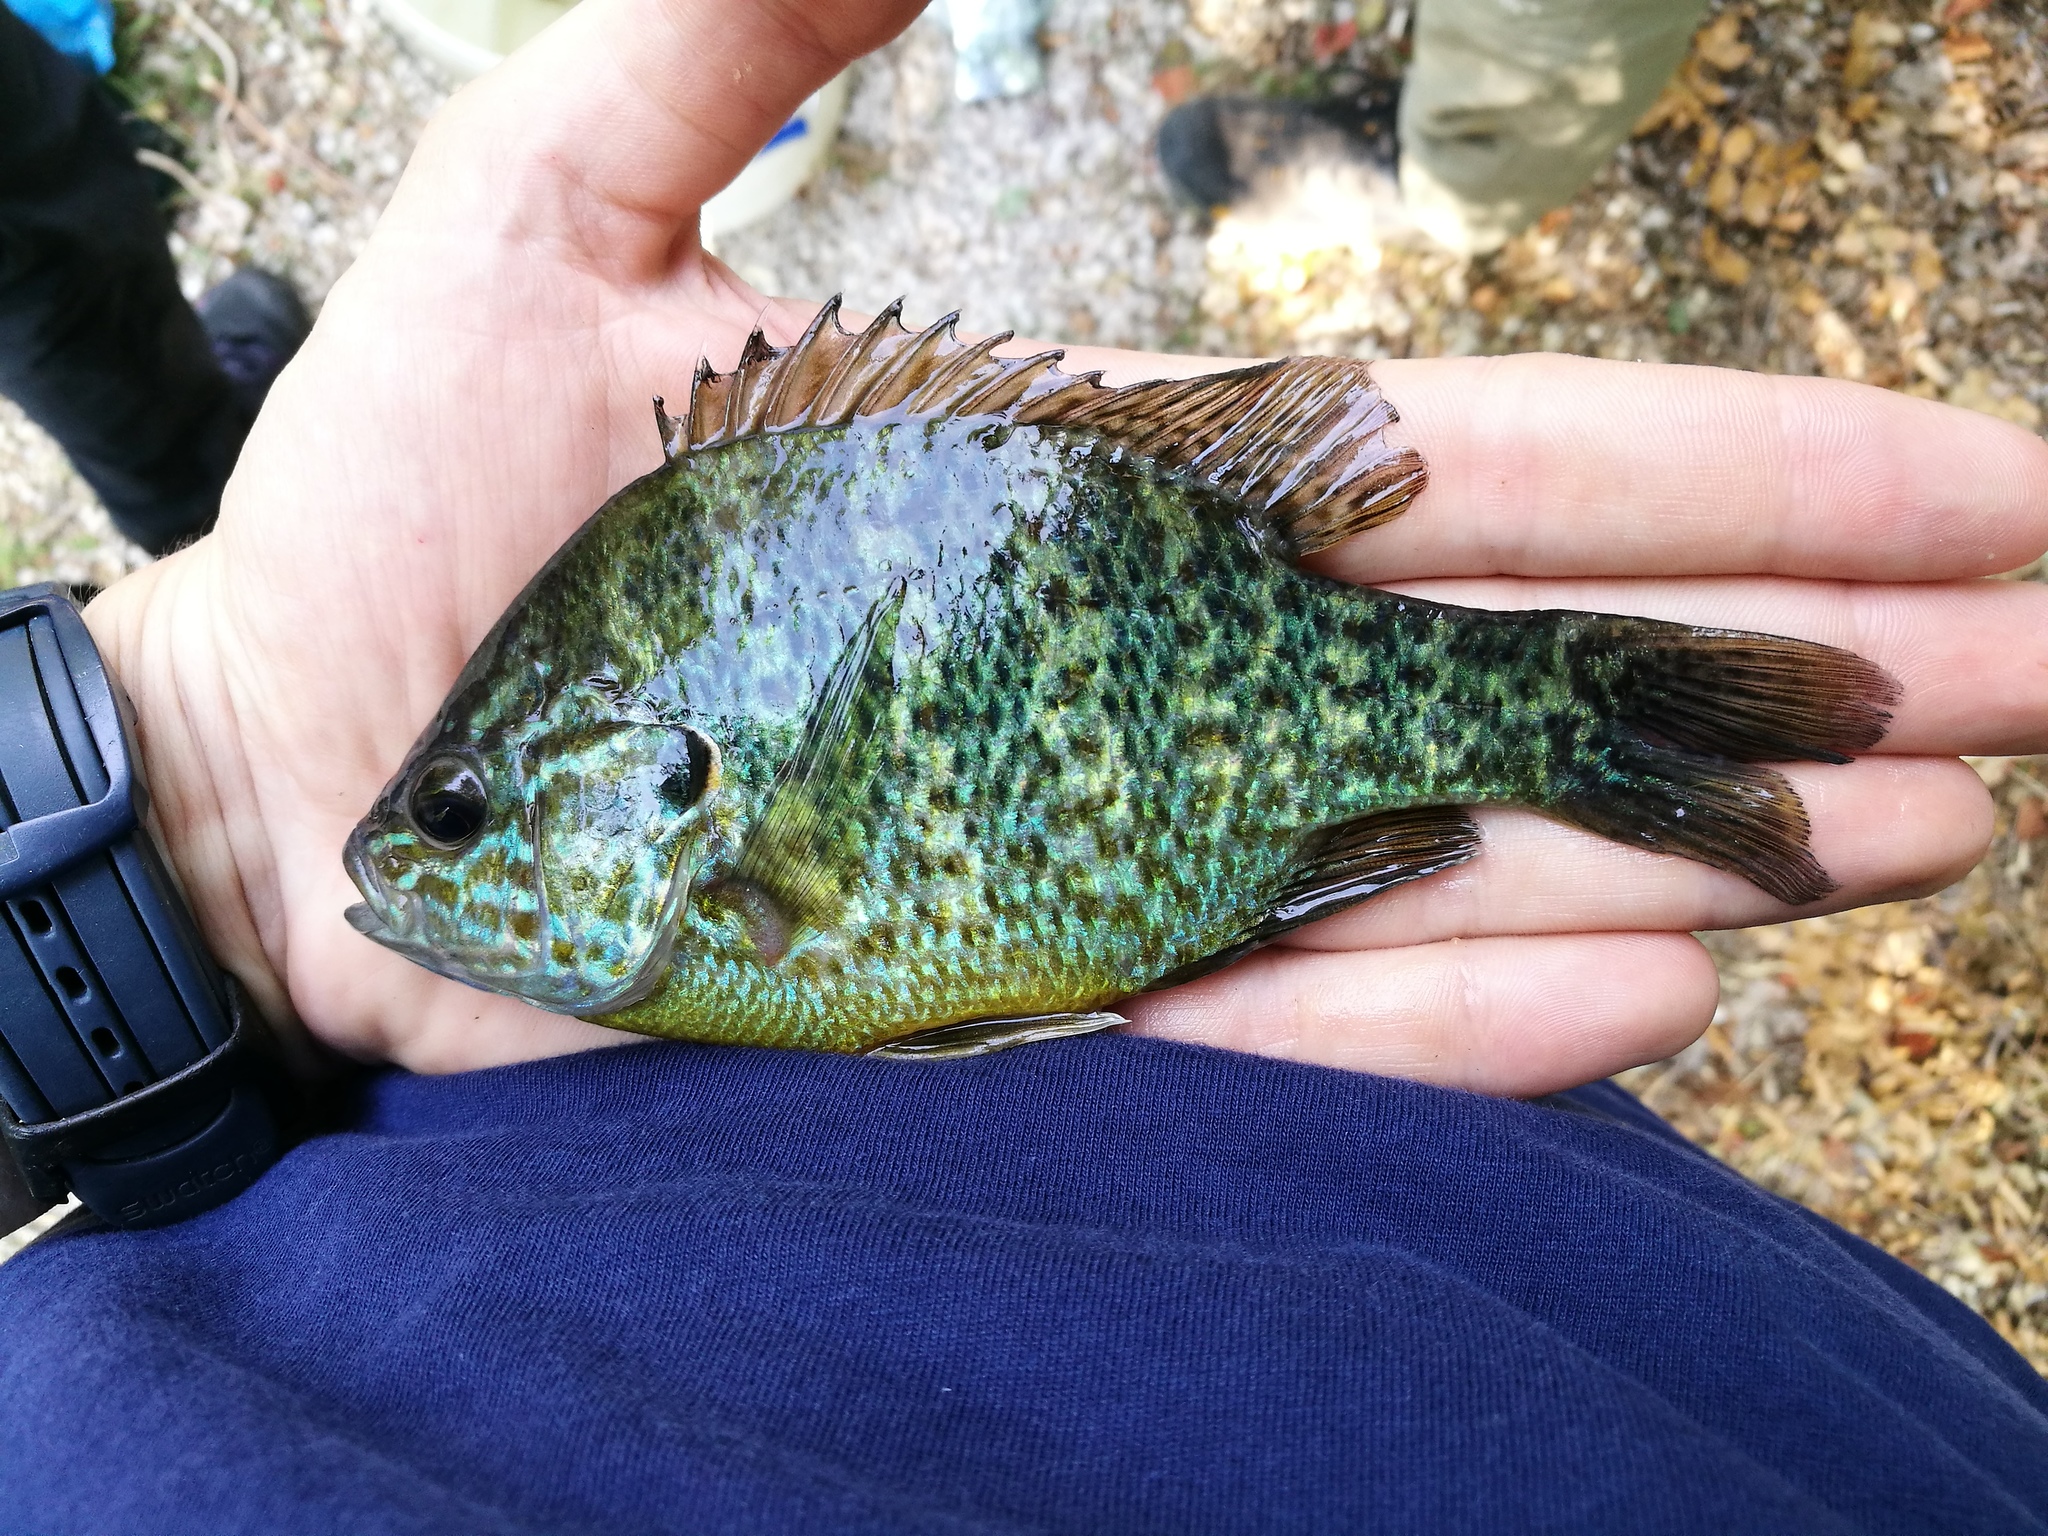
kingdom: Animalia
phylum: Chordata
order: Perciformes
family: Centrarchidae
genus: Lepomis
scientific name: Lepomis gibbosus
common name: Pumpkinseed
